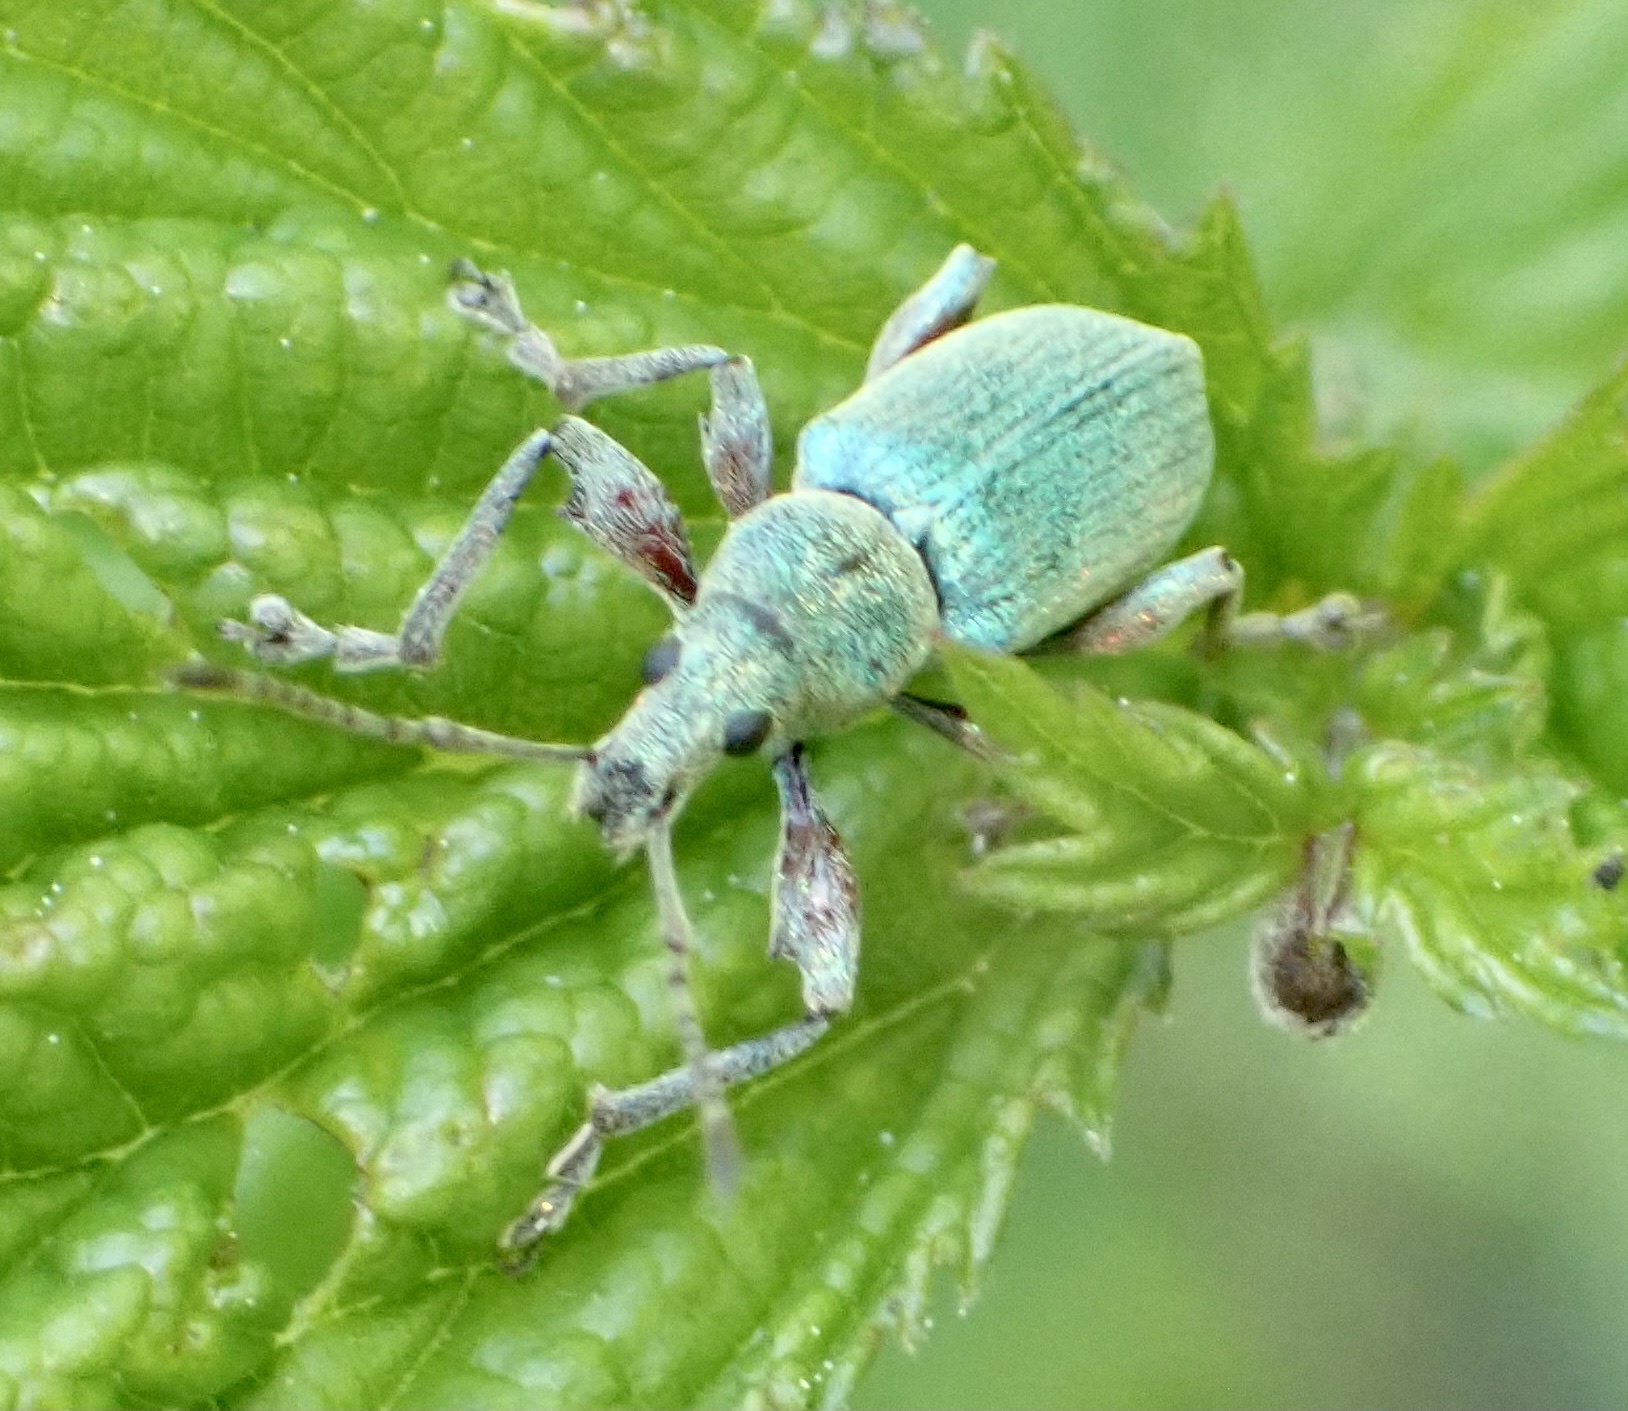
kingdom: Animalia
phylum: Arthropoda
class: Insecta
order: Coleoptera
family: Curculionidae
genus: Phyllobius
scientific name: Phyllobius pomaceus
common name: Green nettle weevil
